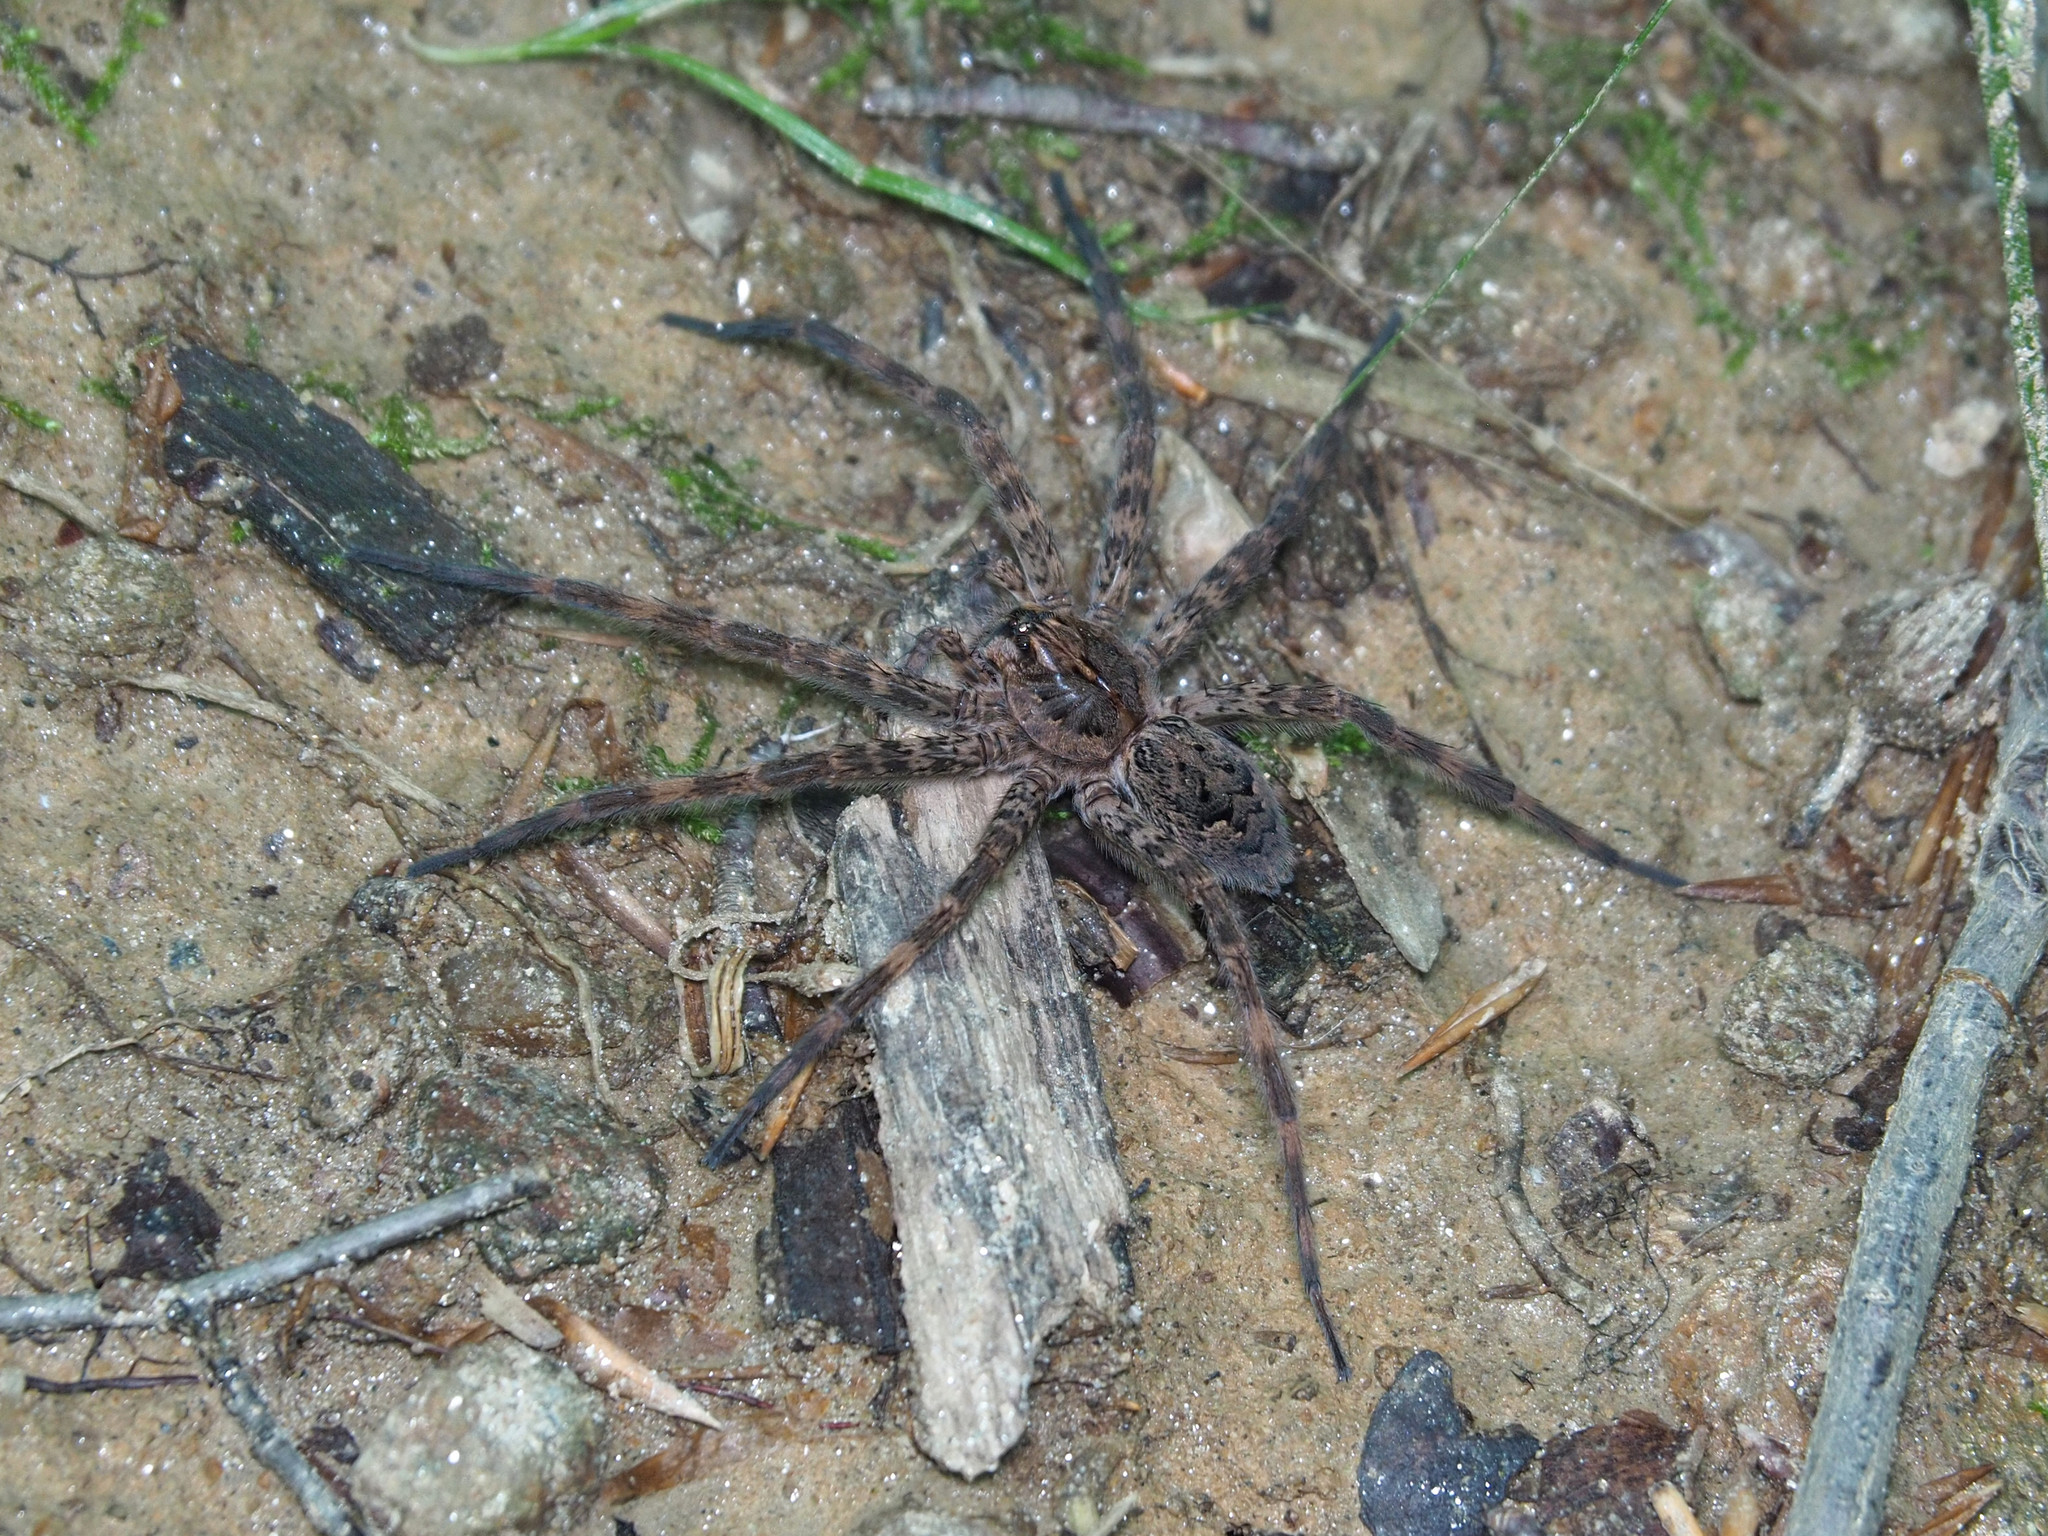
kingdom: Animalia
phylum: Arthropoda
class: Arachnida
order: Araneae
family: Pisauridae
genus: Dolomedes
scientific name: Dolomedes tenebrosus
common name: Dark fishing spider
